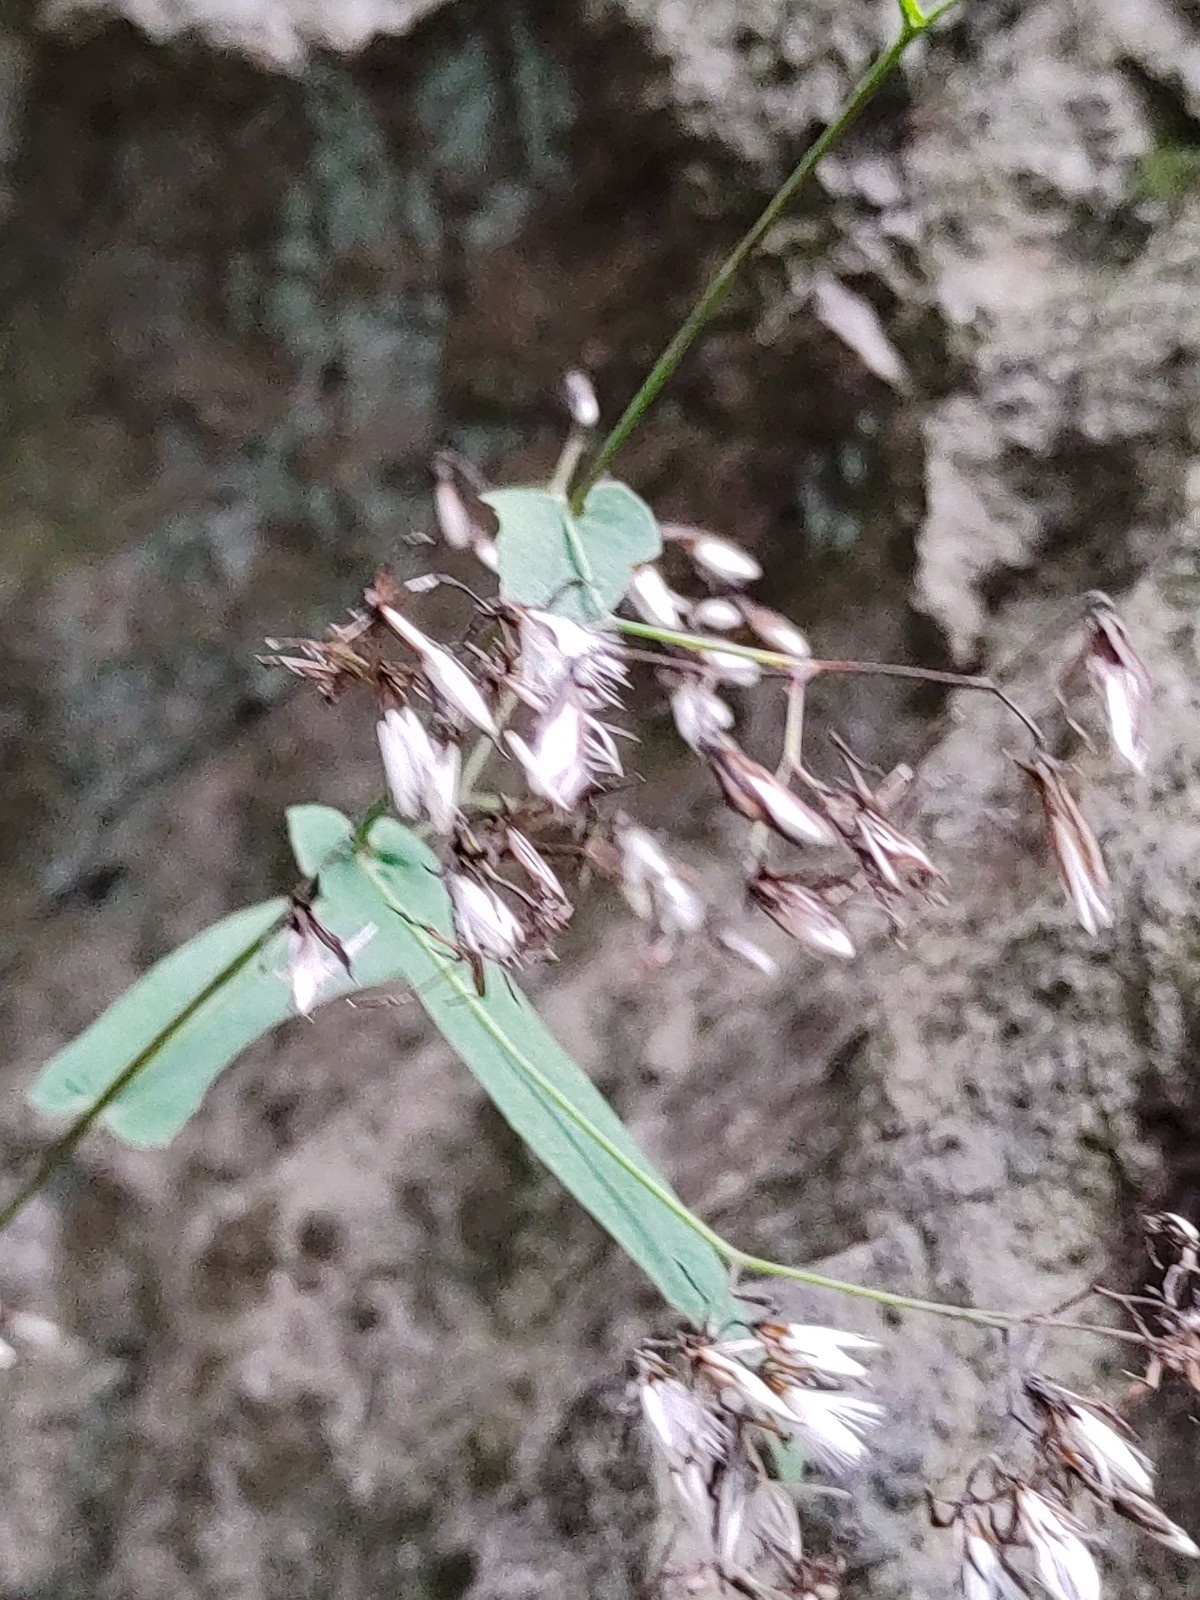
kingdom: Plantae
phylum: Tracheophyta
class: Magnoliopsida
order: Asterales
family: Asteraceae
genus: Prenanthes
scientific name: Prenanthes purpurea
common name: Purple lettuce
